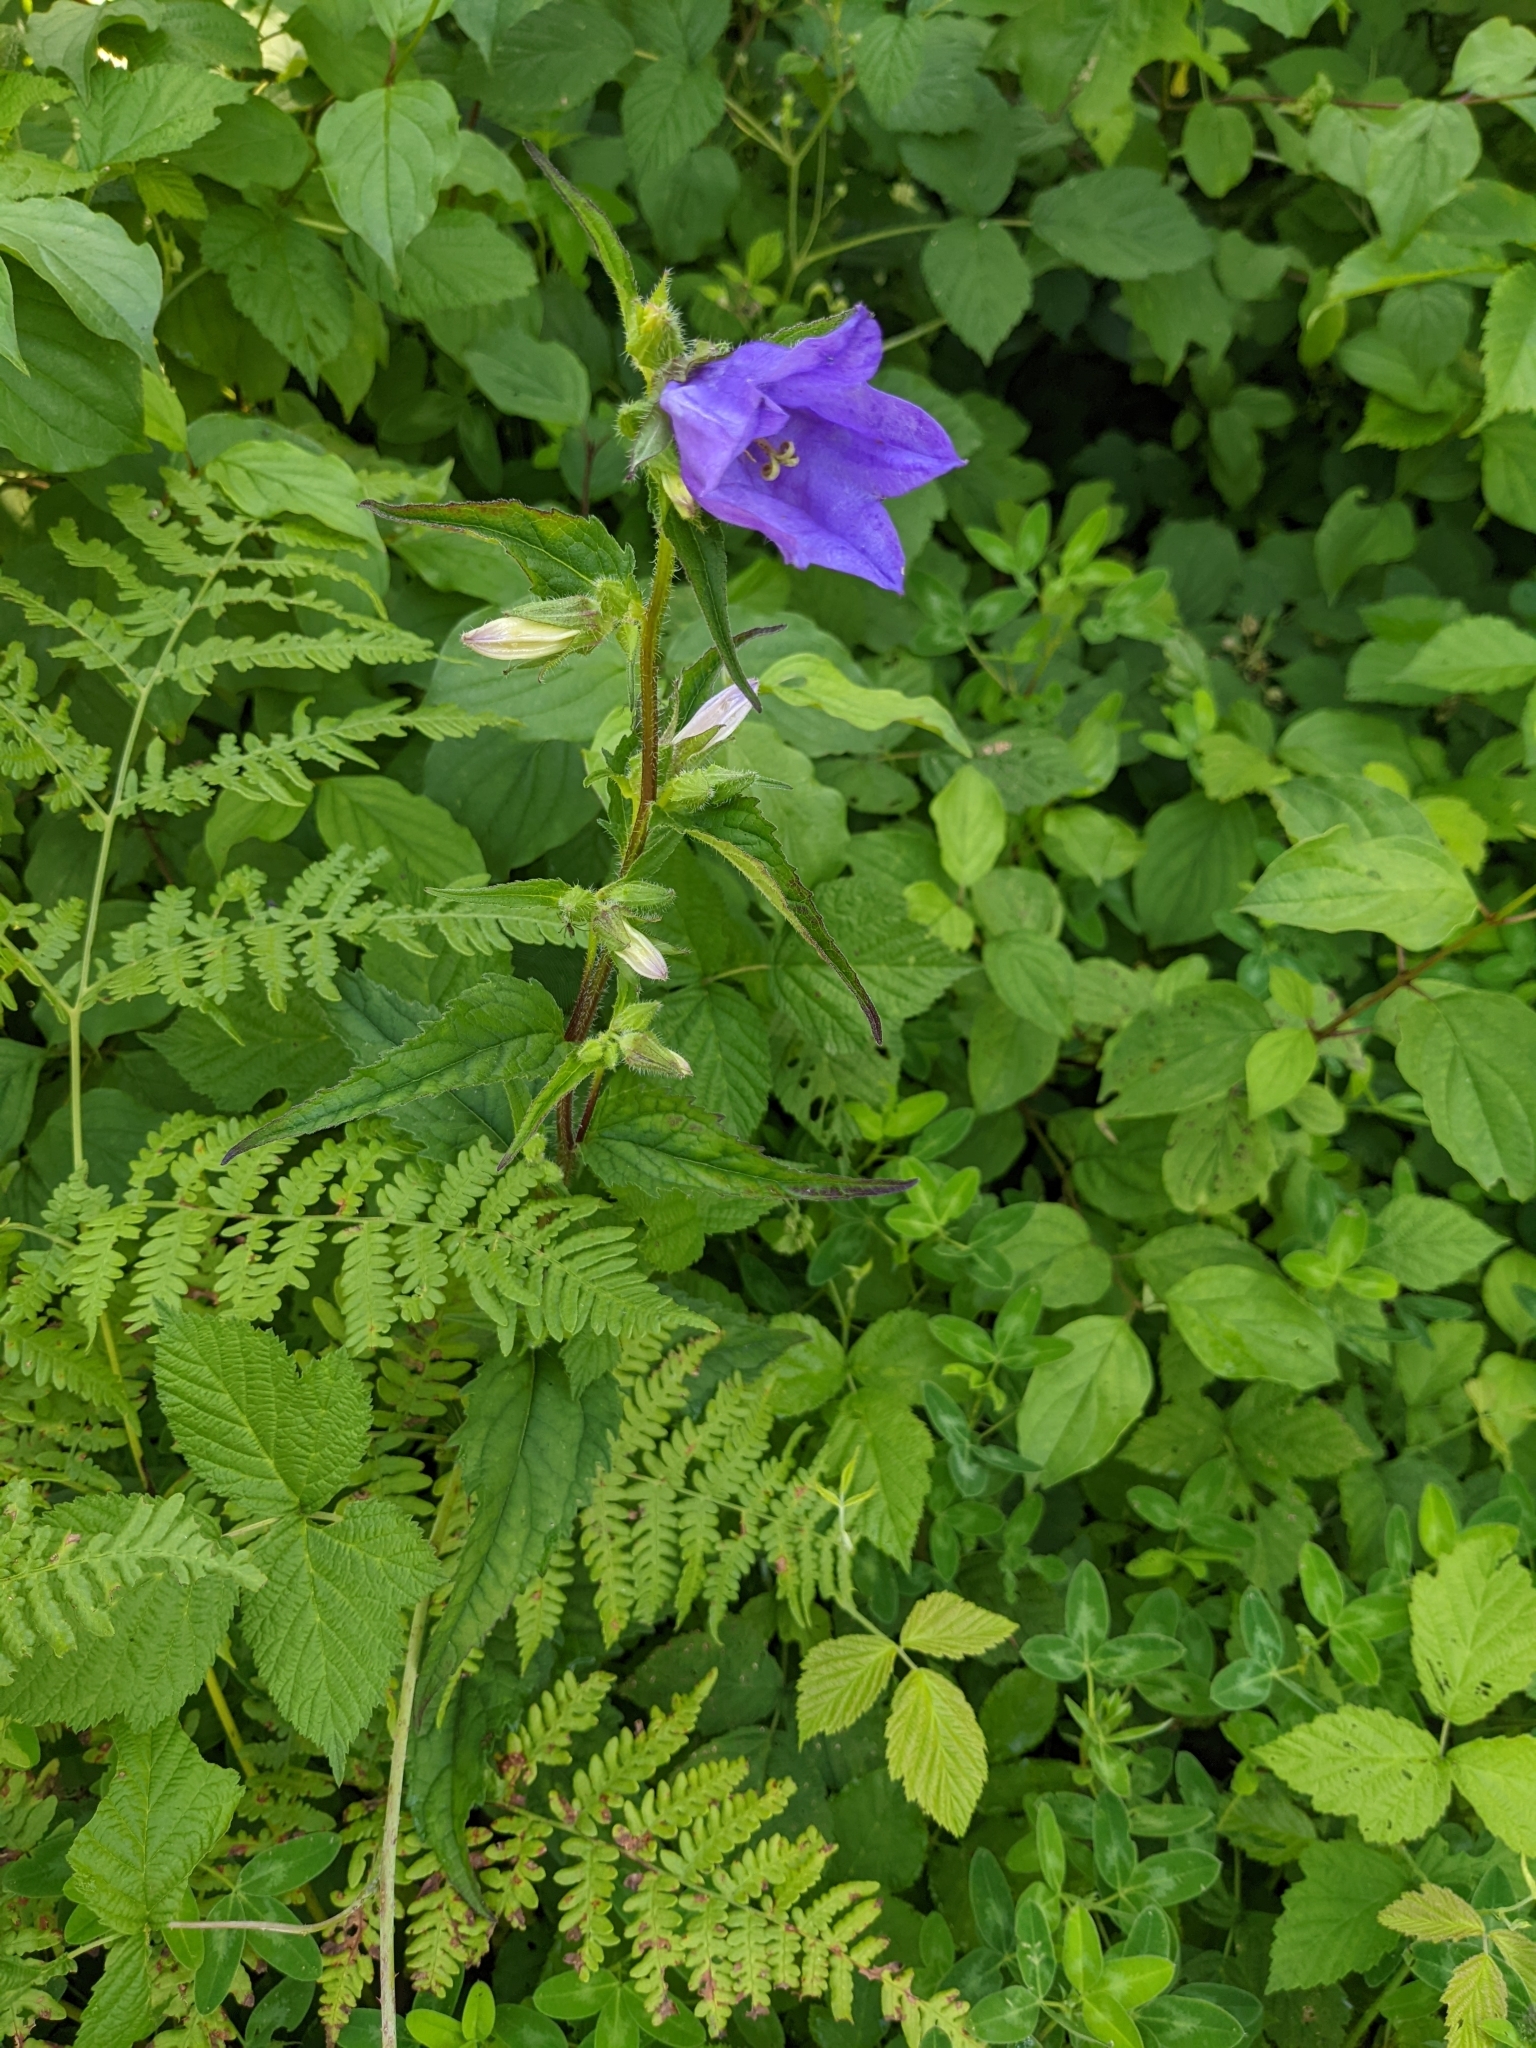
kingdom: Plantae
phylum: Tracheophyta
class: Magnoliopsida
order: Asterales
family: Campanulaceae
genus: Campanula
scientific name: Campanula trachelium
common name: Nettle-leaved bellflower
